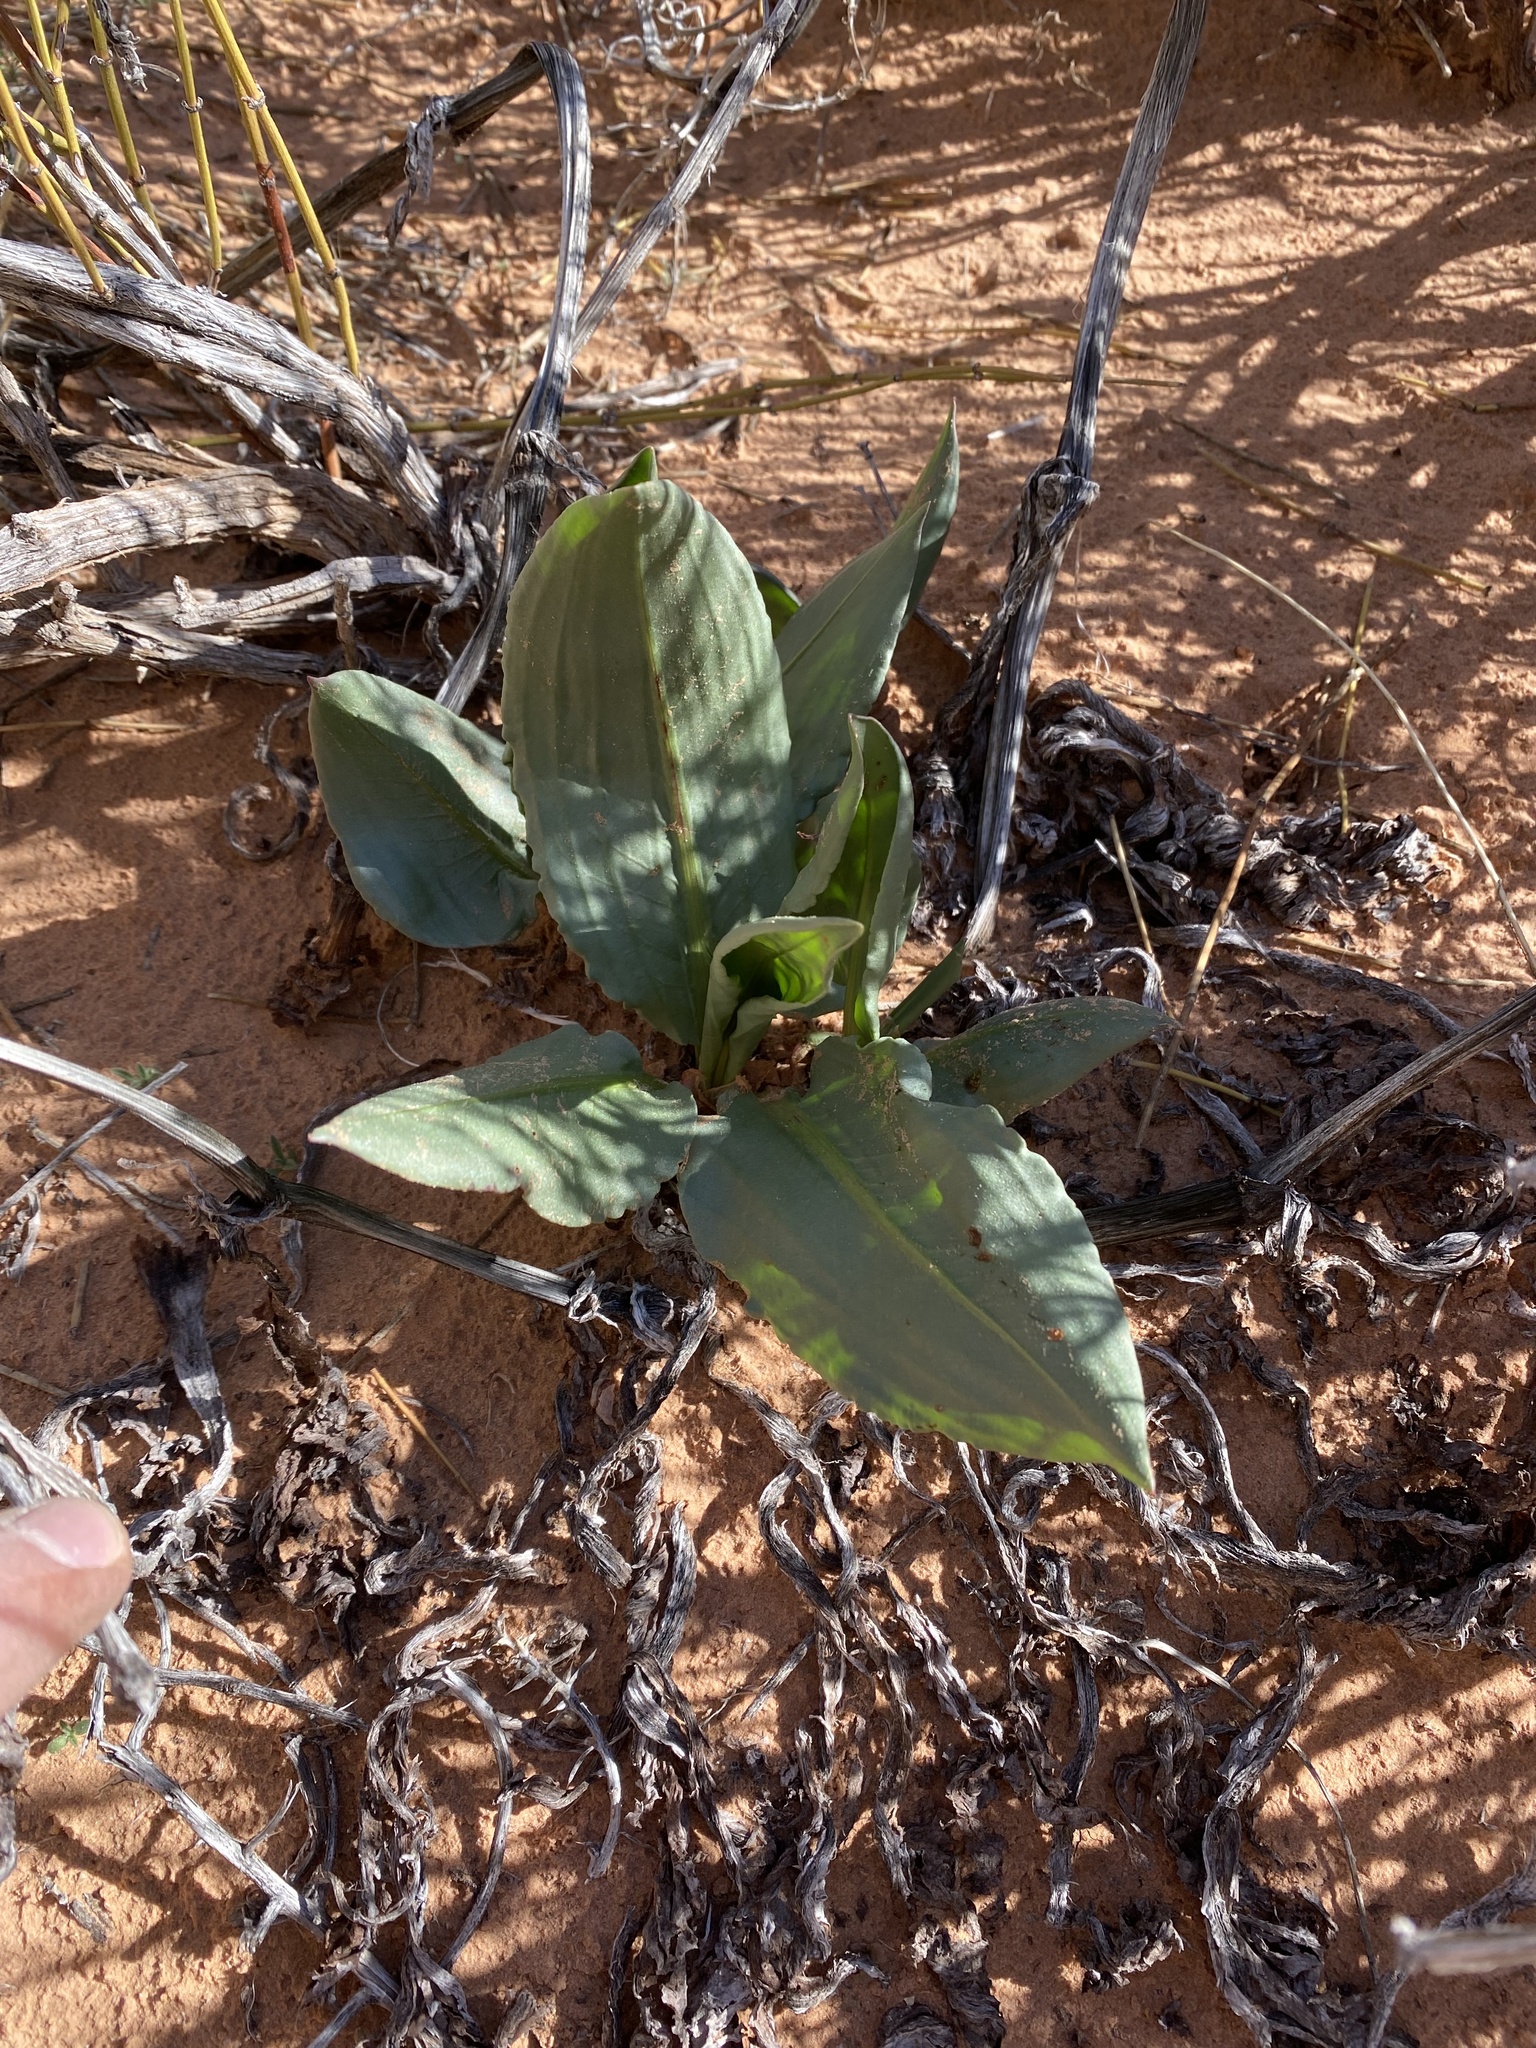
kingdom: Plantae
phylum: Tracheophyta
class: Magnoliopsida
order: Caryophyllales
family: Polygonaceae
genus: Rumex
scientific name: Rumex hymenosepalus
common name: Ganagra
